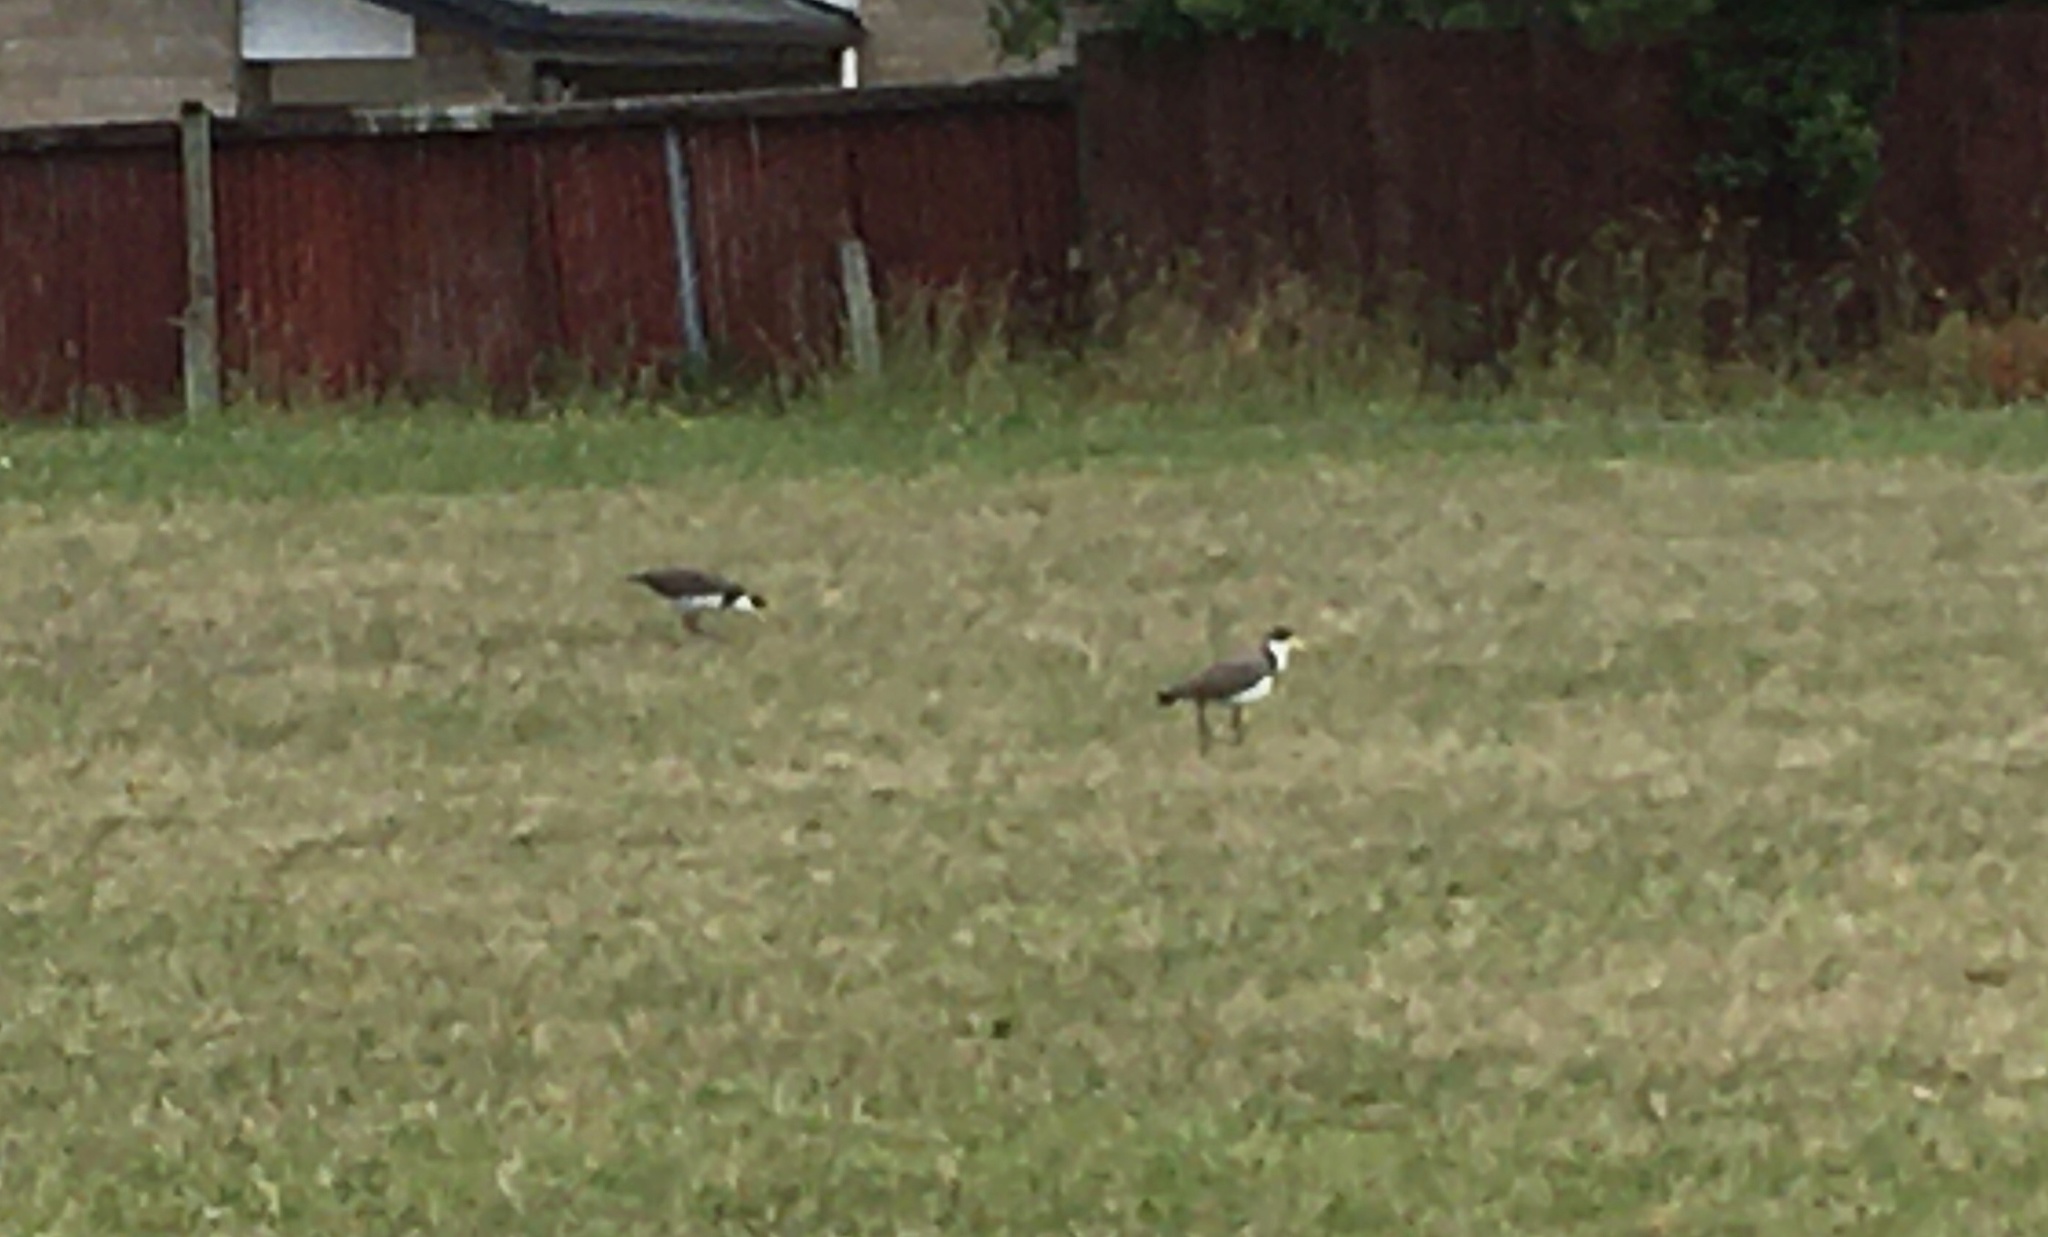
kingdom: Animalia
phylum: Chordata
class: Aves
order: Charadriiformes
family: Charadriidae
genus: Vanellus
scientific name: Vanellus miles
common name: Masked lapwing
